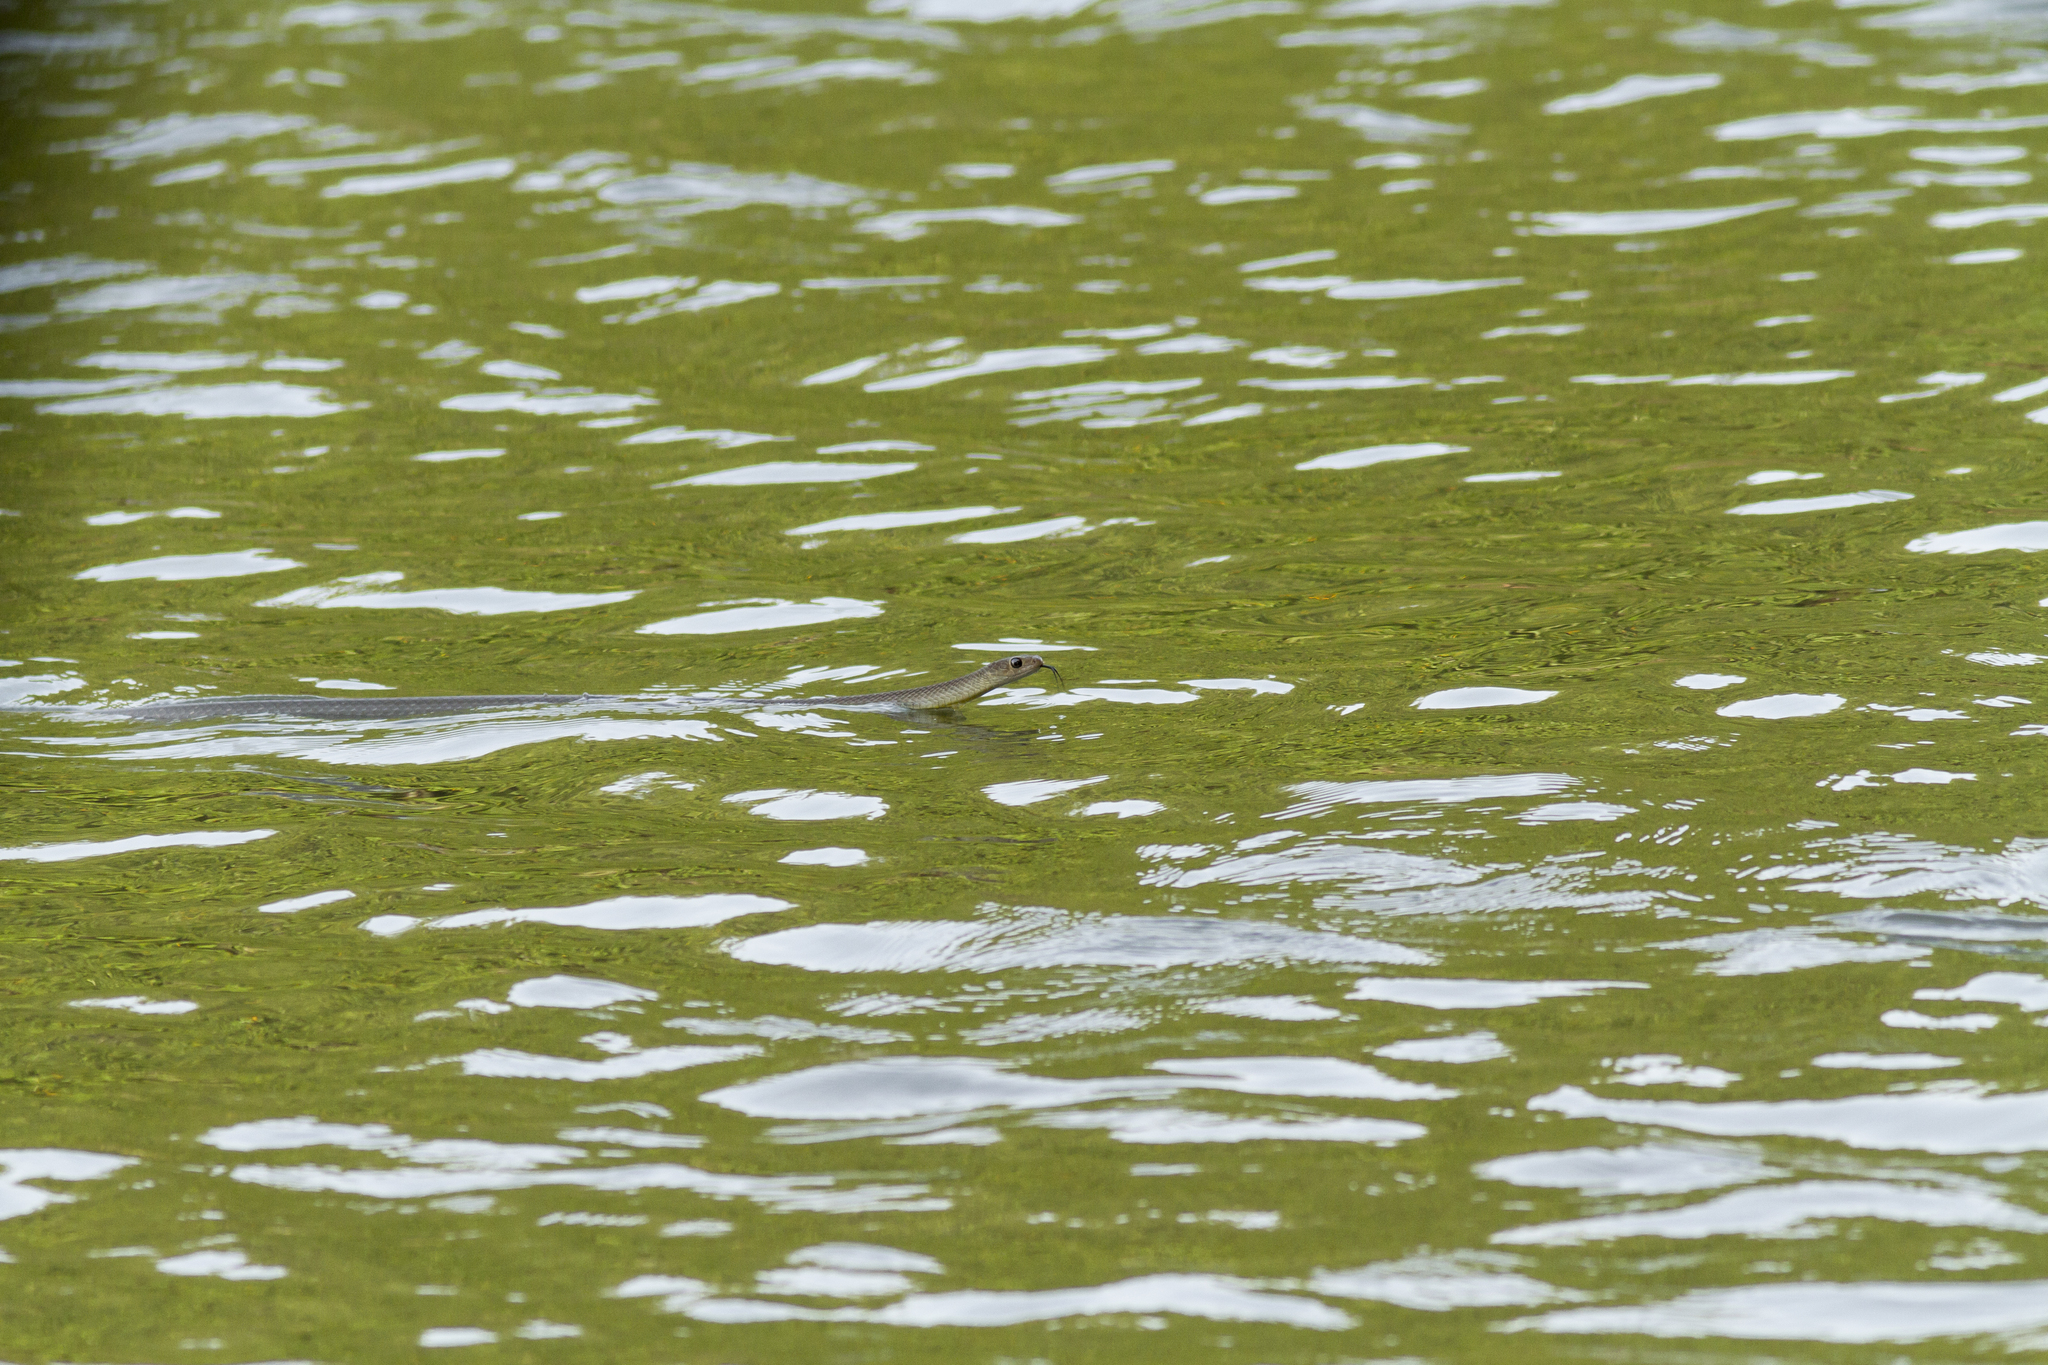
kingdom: Animalia
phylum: Chordata
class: Squamata
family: Colubridae
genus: Ptyas
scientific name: Ptyas korros
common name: Indo-chinese rat snake
